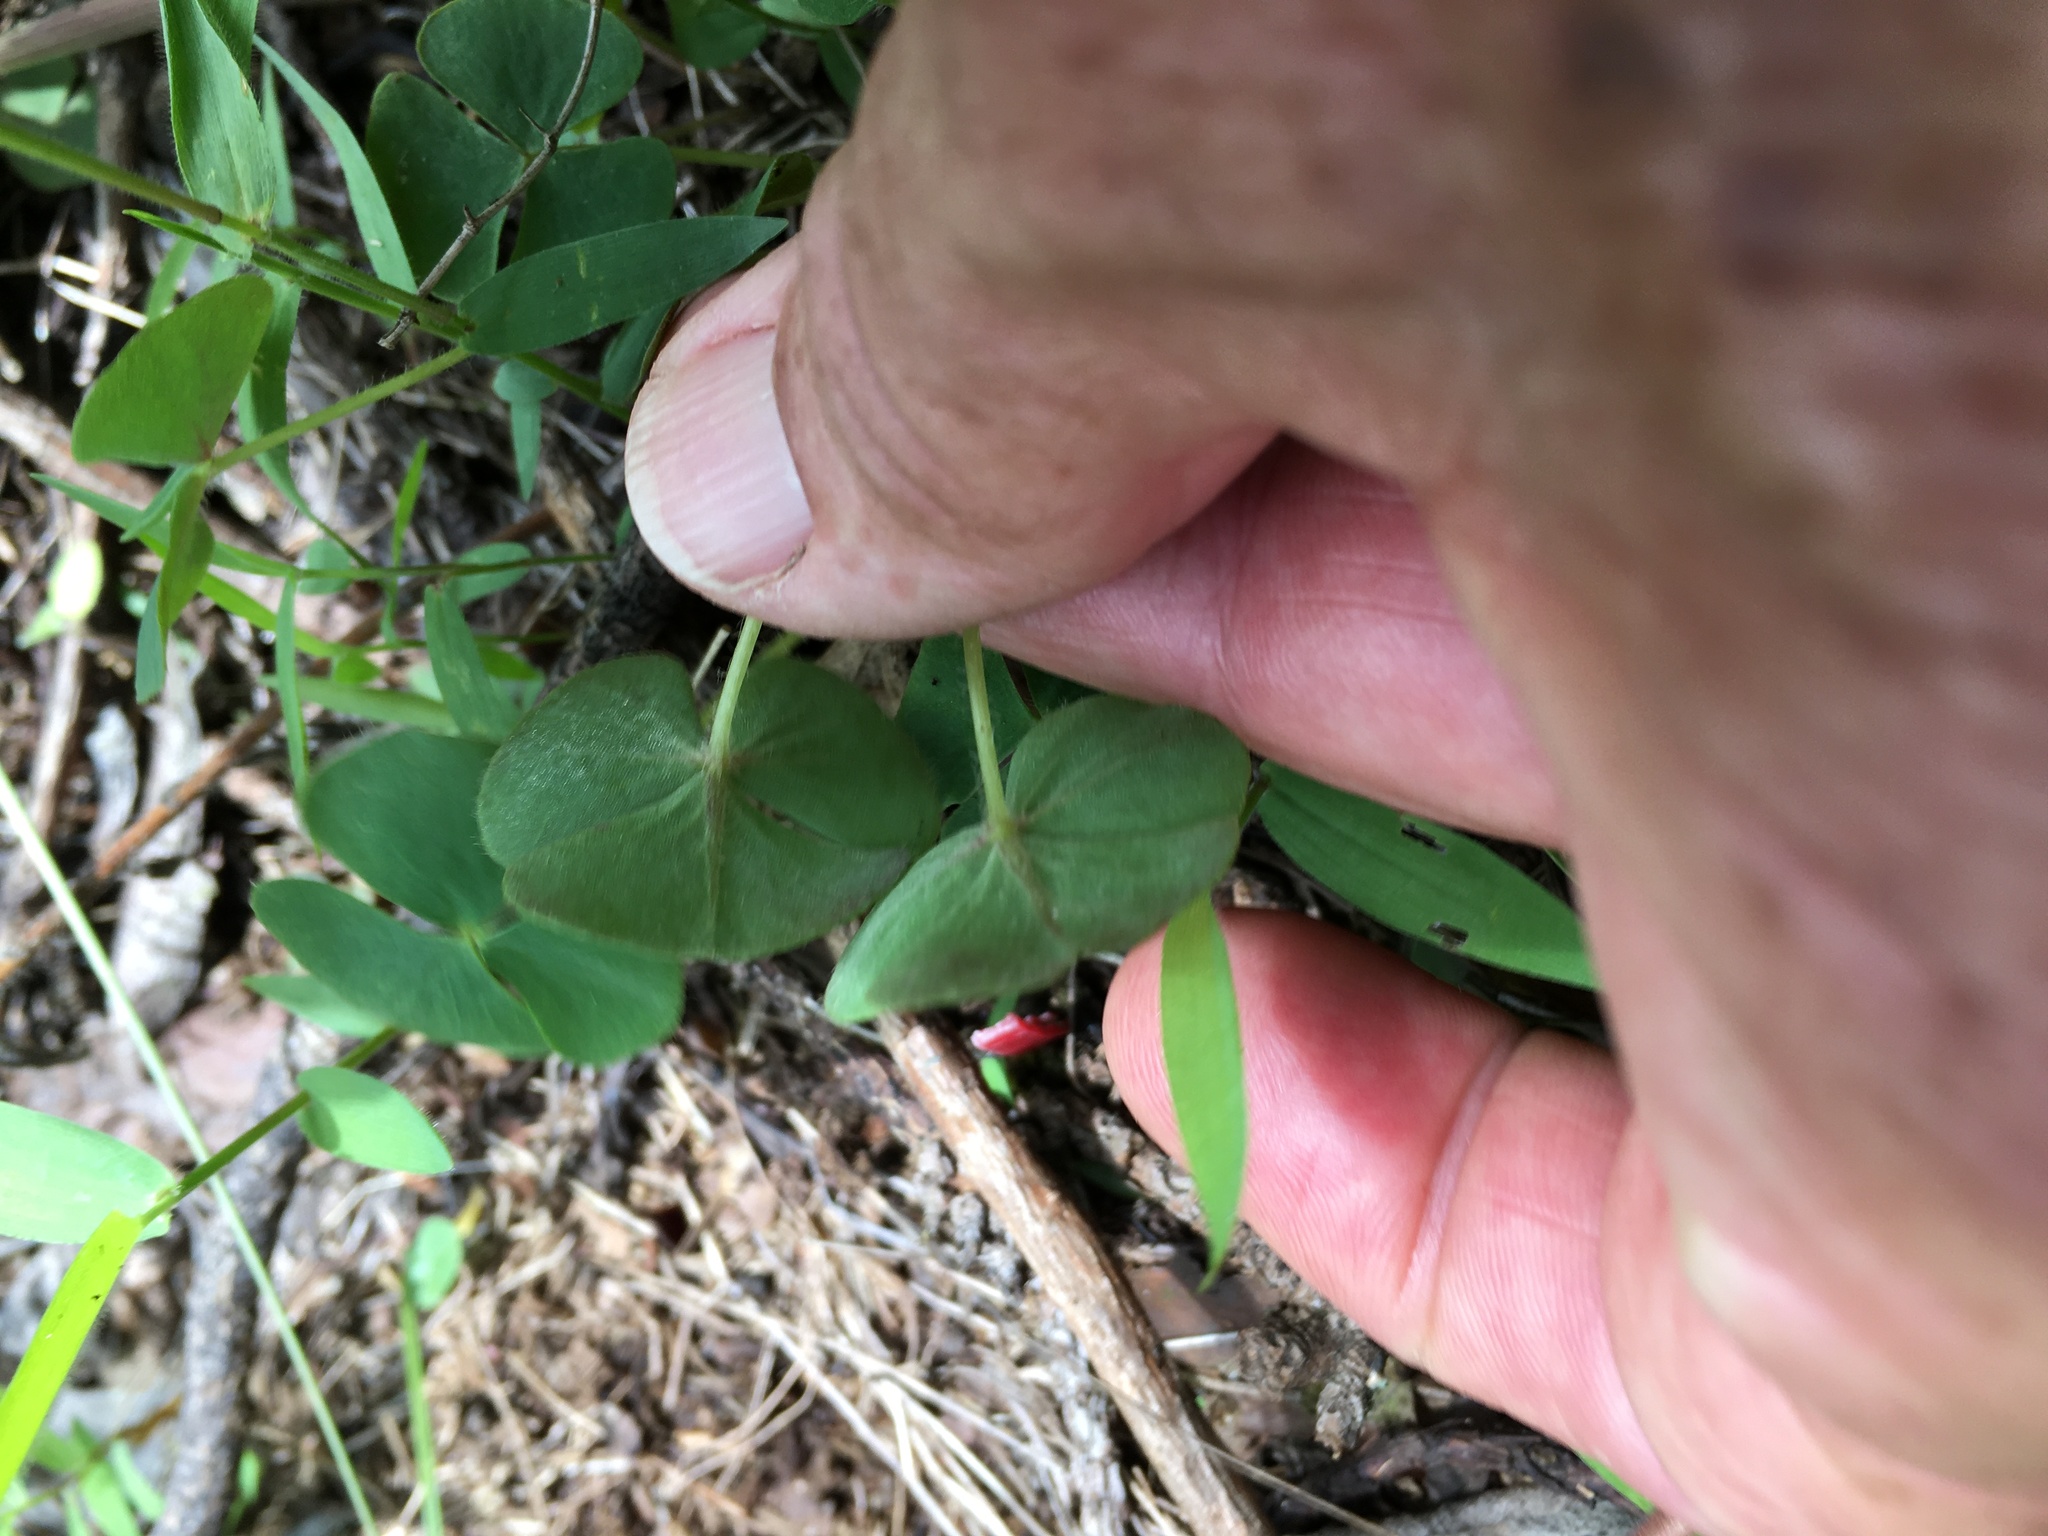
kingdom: Plantae
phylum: Tracheophyta
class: Magnoliopsida
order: Oxalidales
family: Oxalidaceae
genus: Oxalis
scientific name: Oxalis obliquifolia
